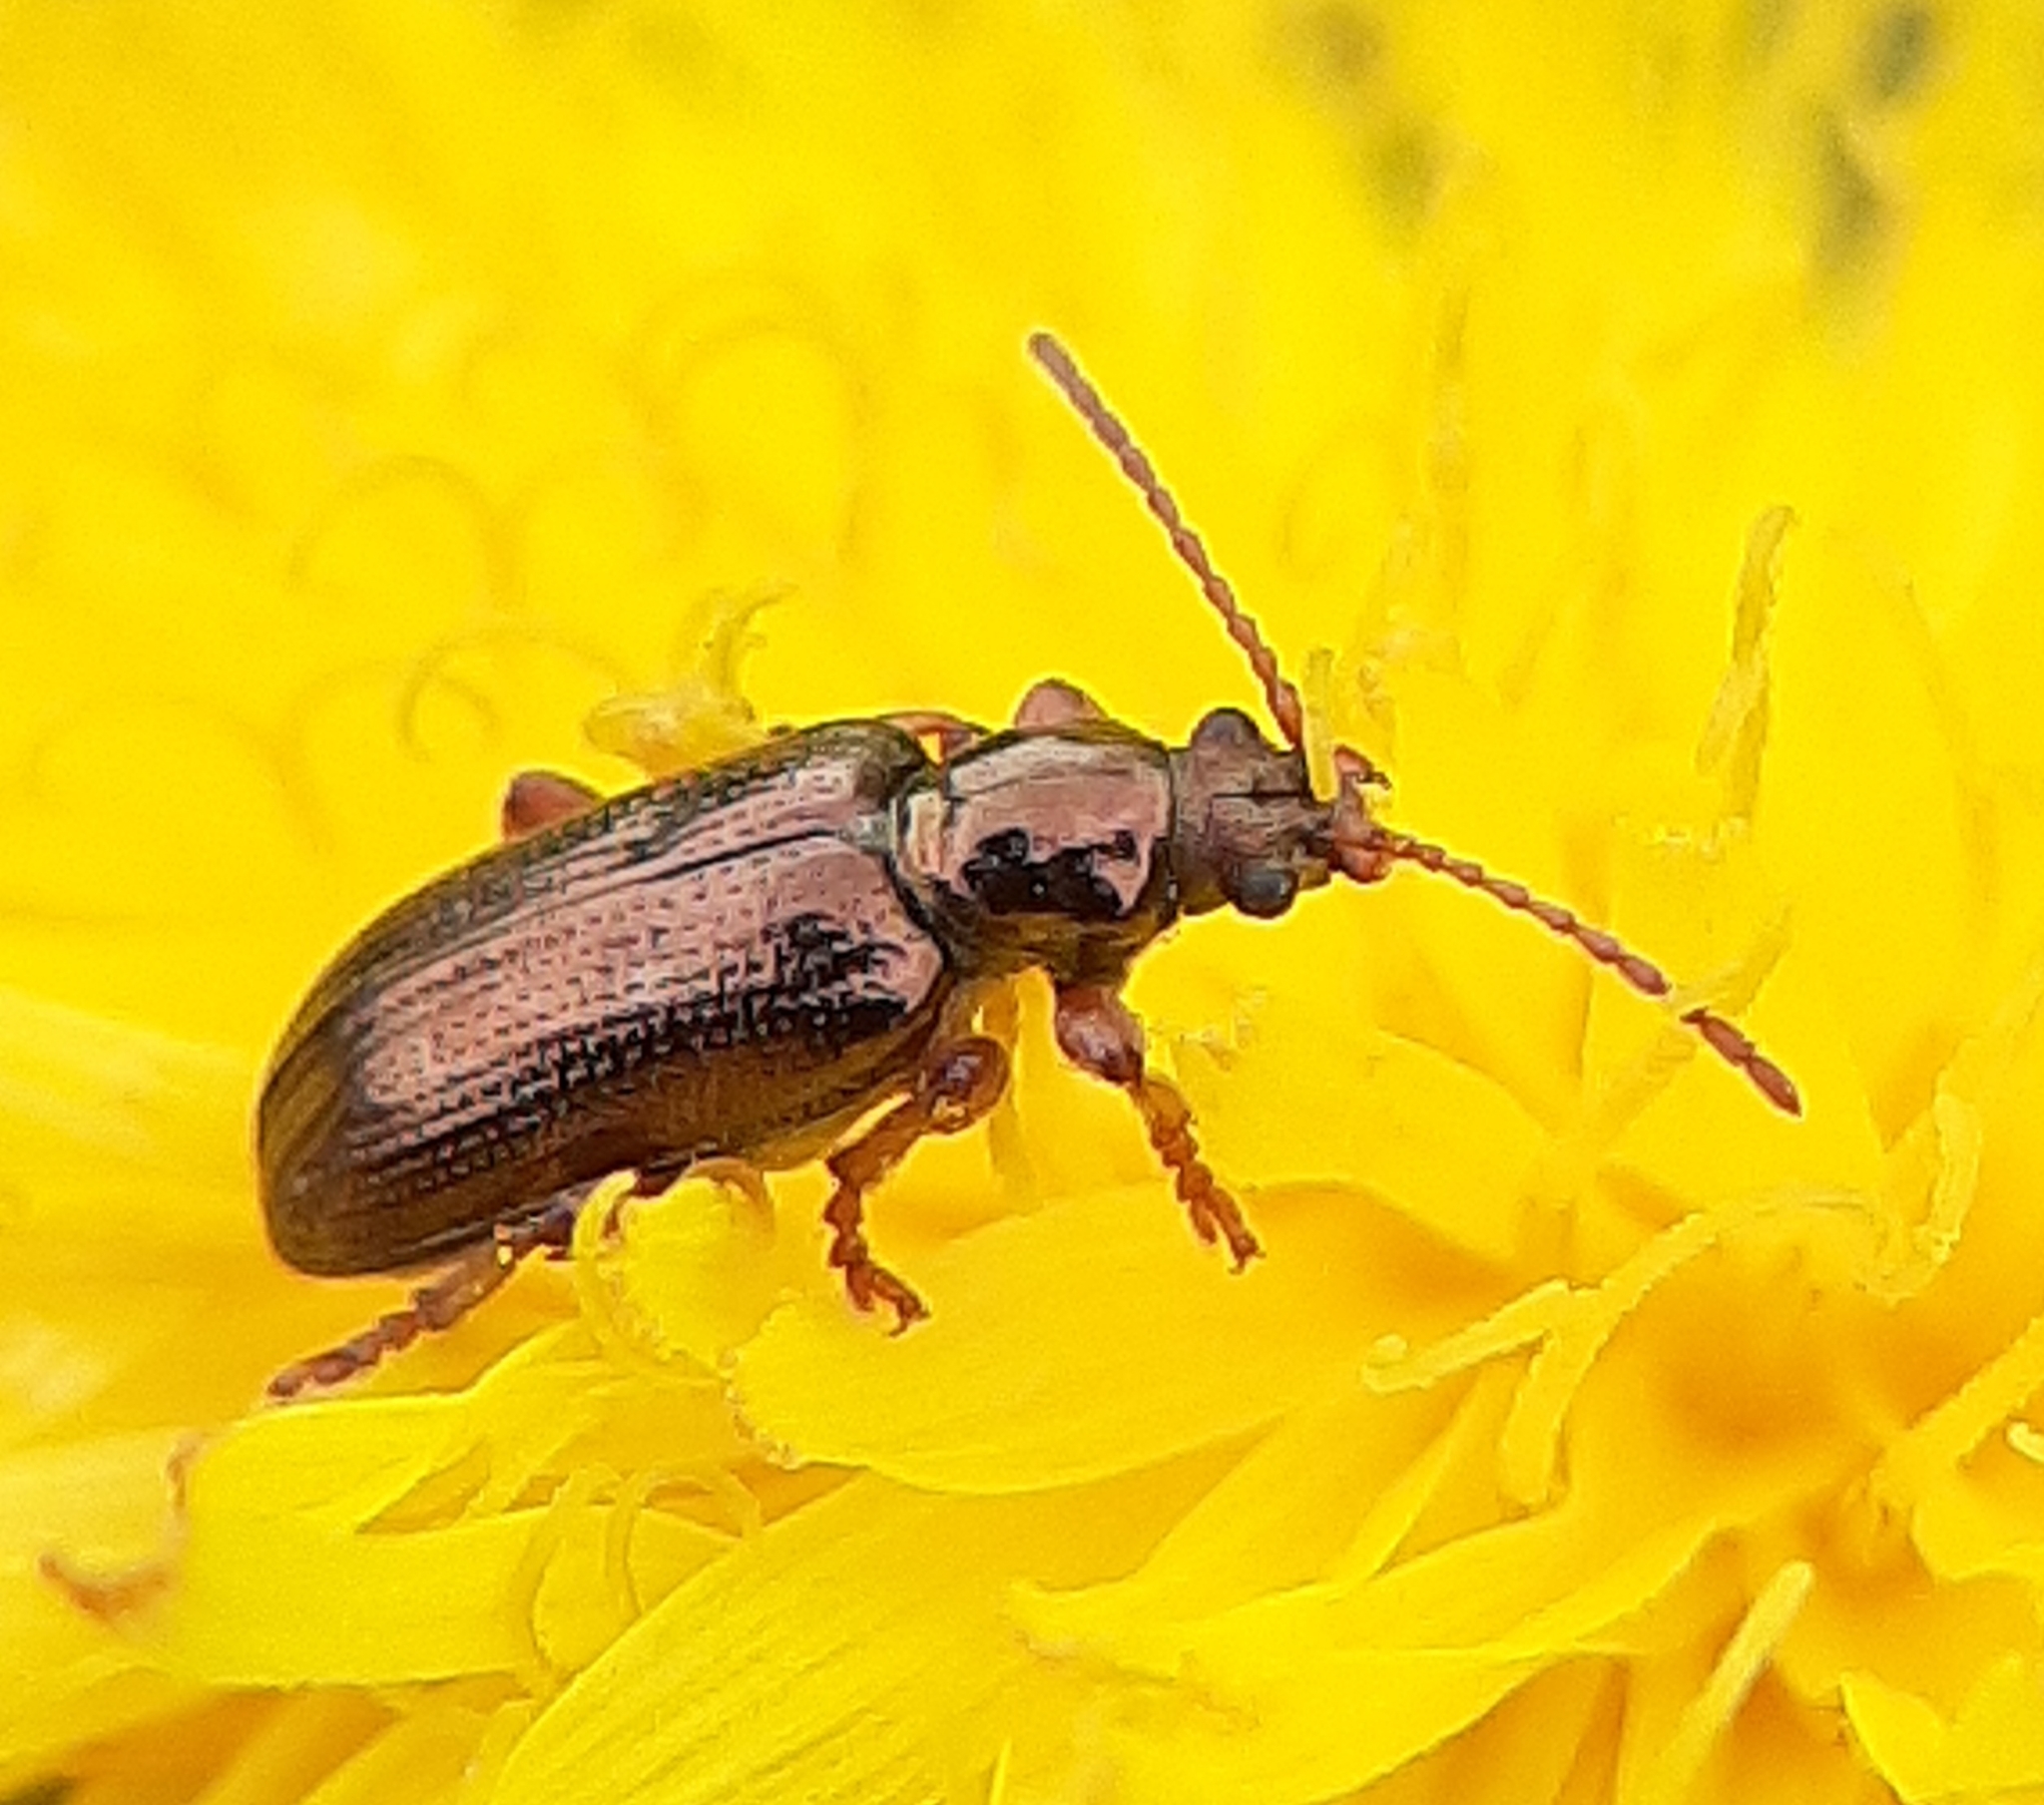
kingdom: Animalia
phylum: Arthropoda
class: Insecta
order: Coleoptera
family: Chrysomelidae
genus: Plateumaris
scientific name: Plateumaris rufa
